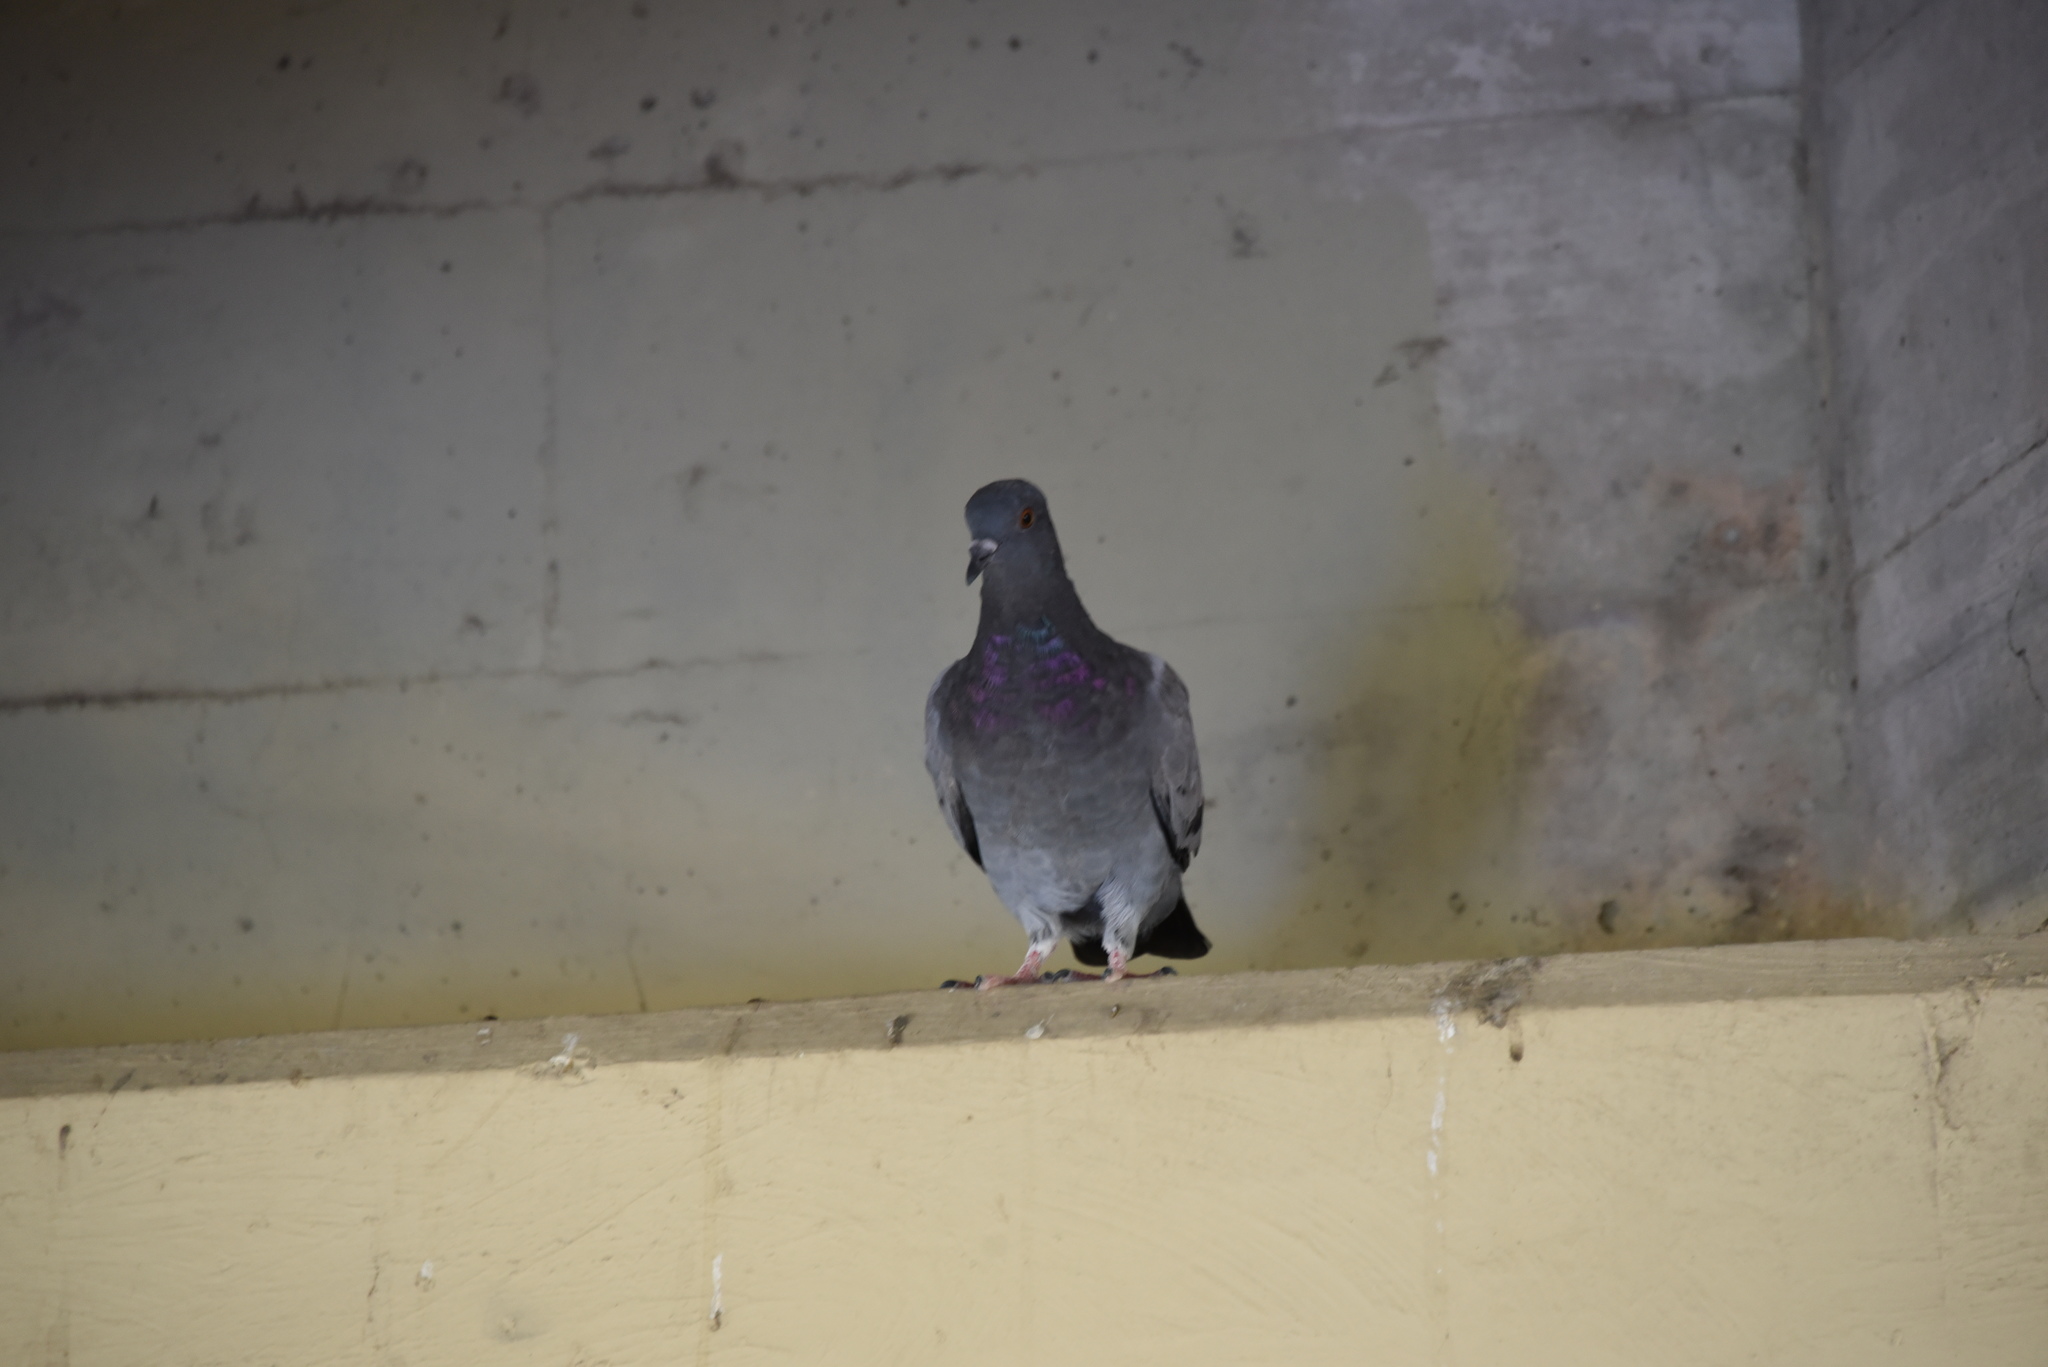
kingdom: Animalia
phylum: Chordata
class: Aves
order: Columbiformes
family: Columbidae
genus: Columba
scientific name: Columba livia
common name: Rock pigeon
